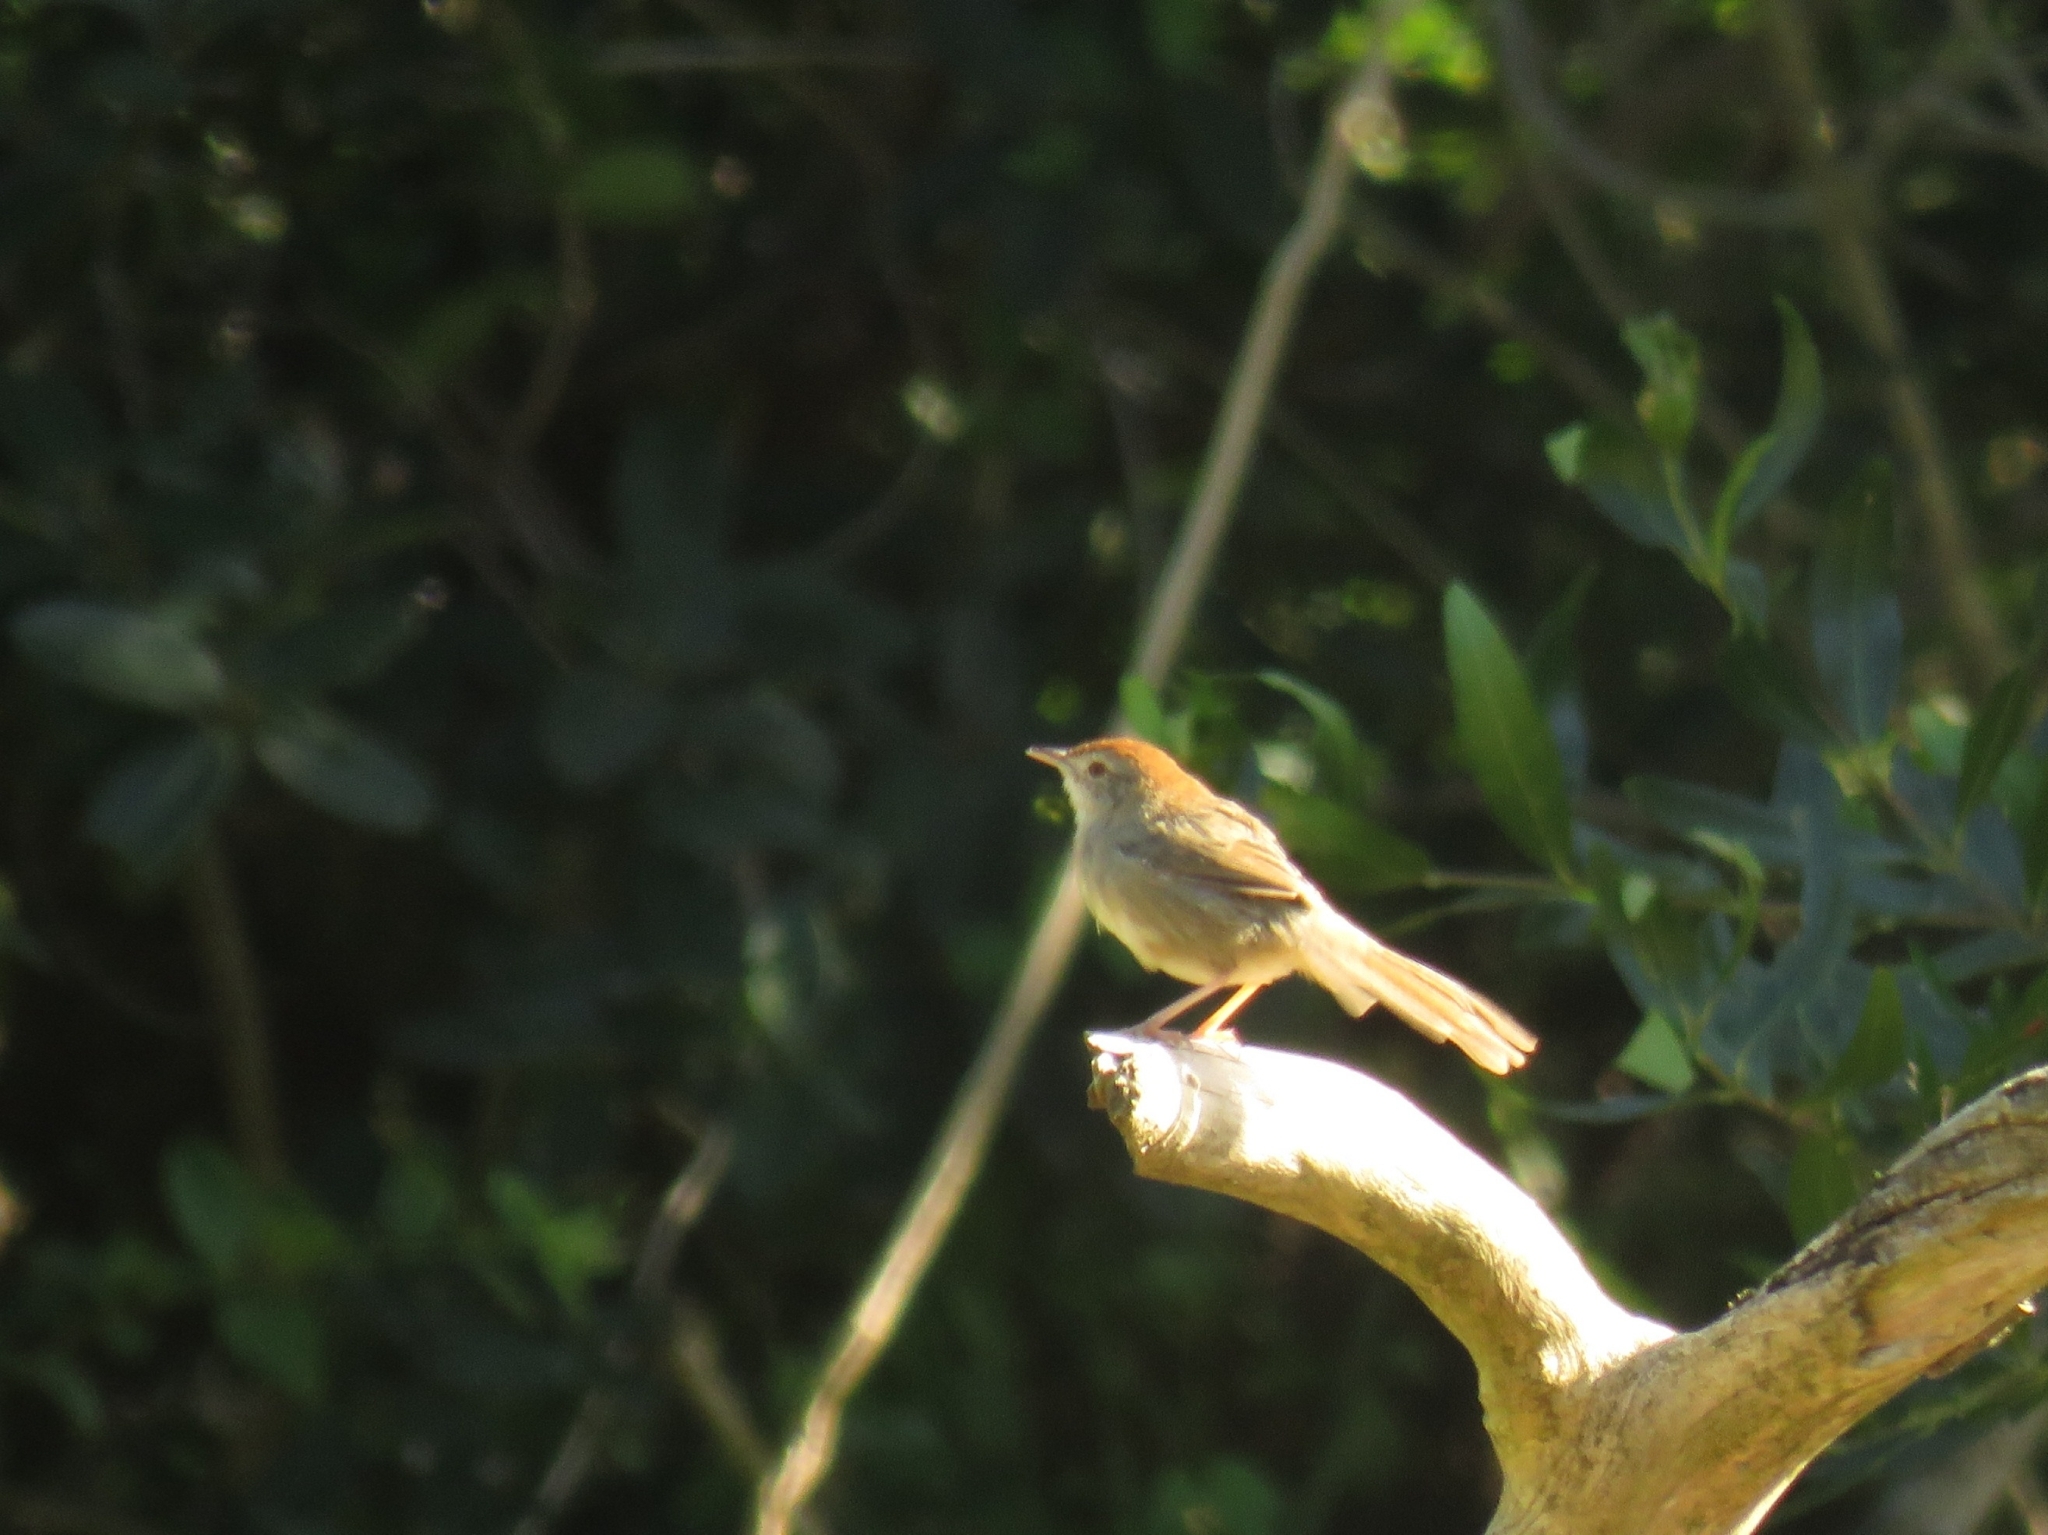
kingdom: Animalia
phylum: Chordata
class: Aves
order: Passeriformes
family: Cisticolidae
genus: Cisticola
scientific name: Cisticola aberrans
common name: Lazy cisticola
